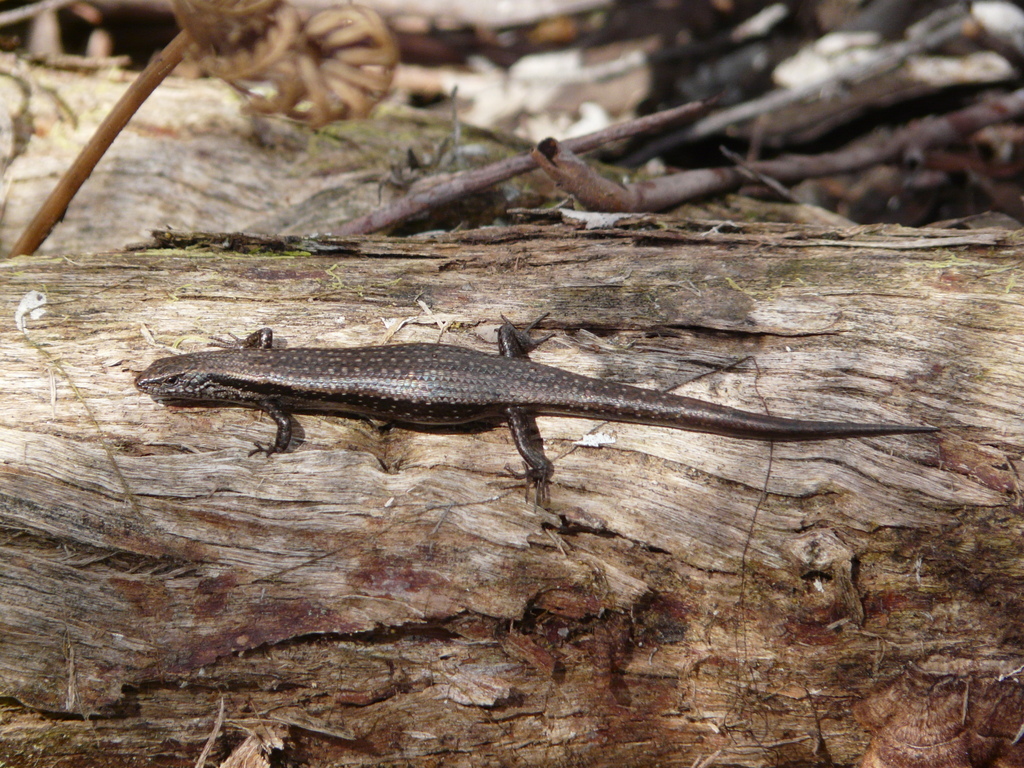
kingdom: Animalia
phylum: Chordata
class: Squamata
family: Scincidae
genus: Carinascincus
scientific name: Carinascincus metallicus
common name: Metallic cool-skink
